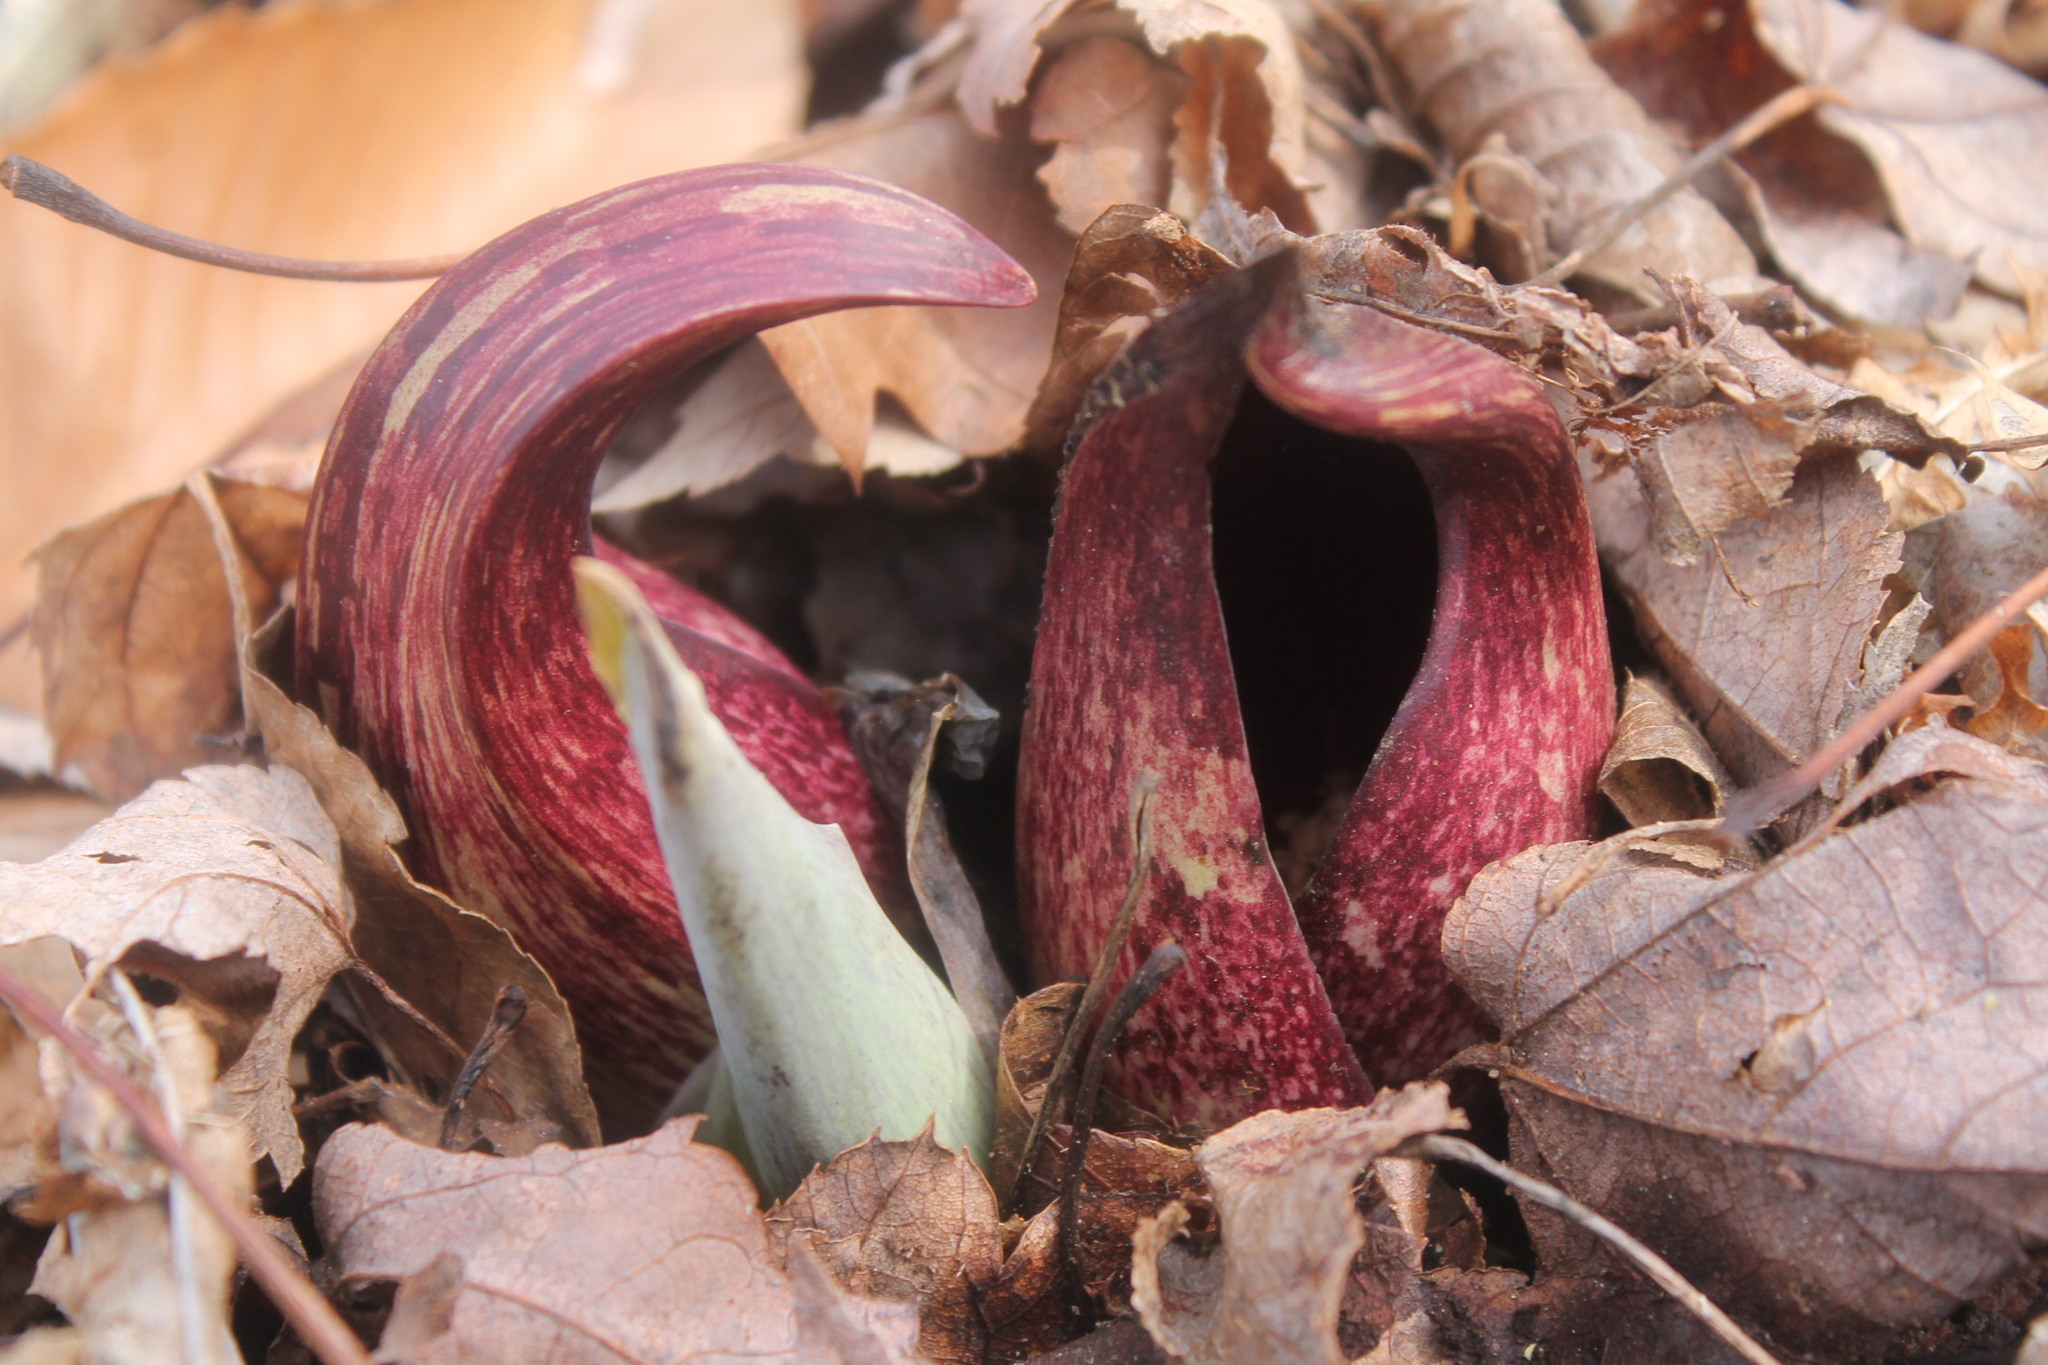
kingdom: Plantae
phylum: Tracheophyta
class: Liliopsida
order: Alismatales
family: Araceae
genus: Symplocarpus
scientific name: Symplocarpus foetidus
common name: Eastern skunk cabbage
